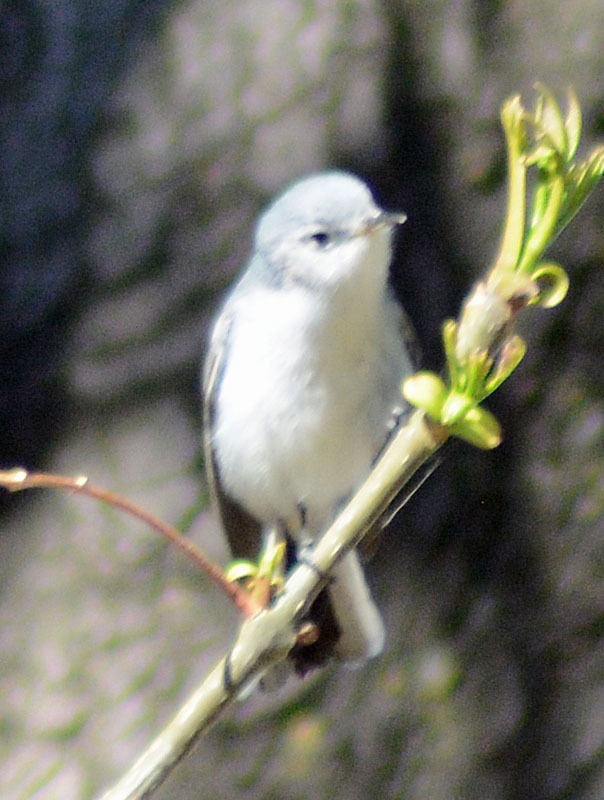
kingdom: Animalia
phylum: Chordata
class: Aves
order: Passeriformes
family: Polioptilidae
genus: Polioptila
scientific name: Polioptila caerulea
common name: Blue-gray gnatcatcher
